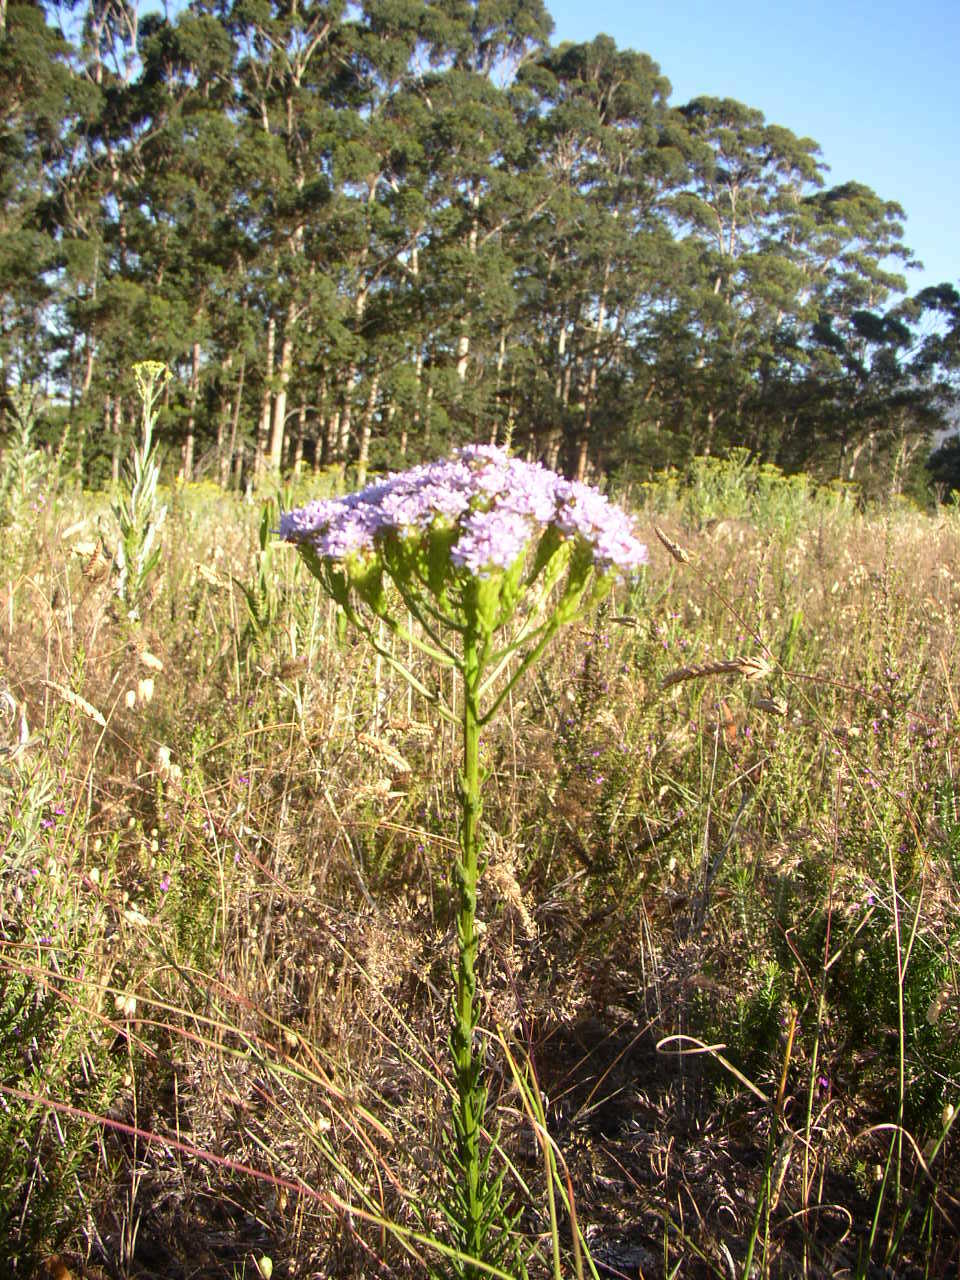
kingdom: Plantae
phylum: Tracheophyta
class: Magnoliopsida
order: Lamiales
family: Scrophulariaceae
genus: Pseudoselago
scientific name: Pseudoselago spuria
